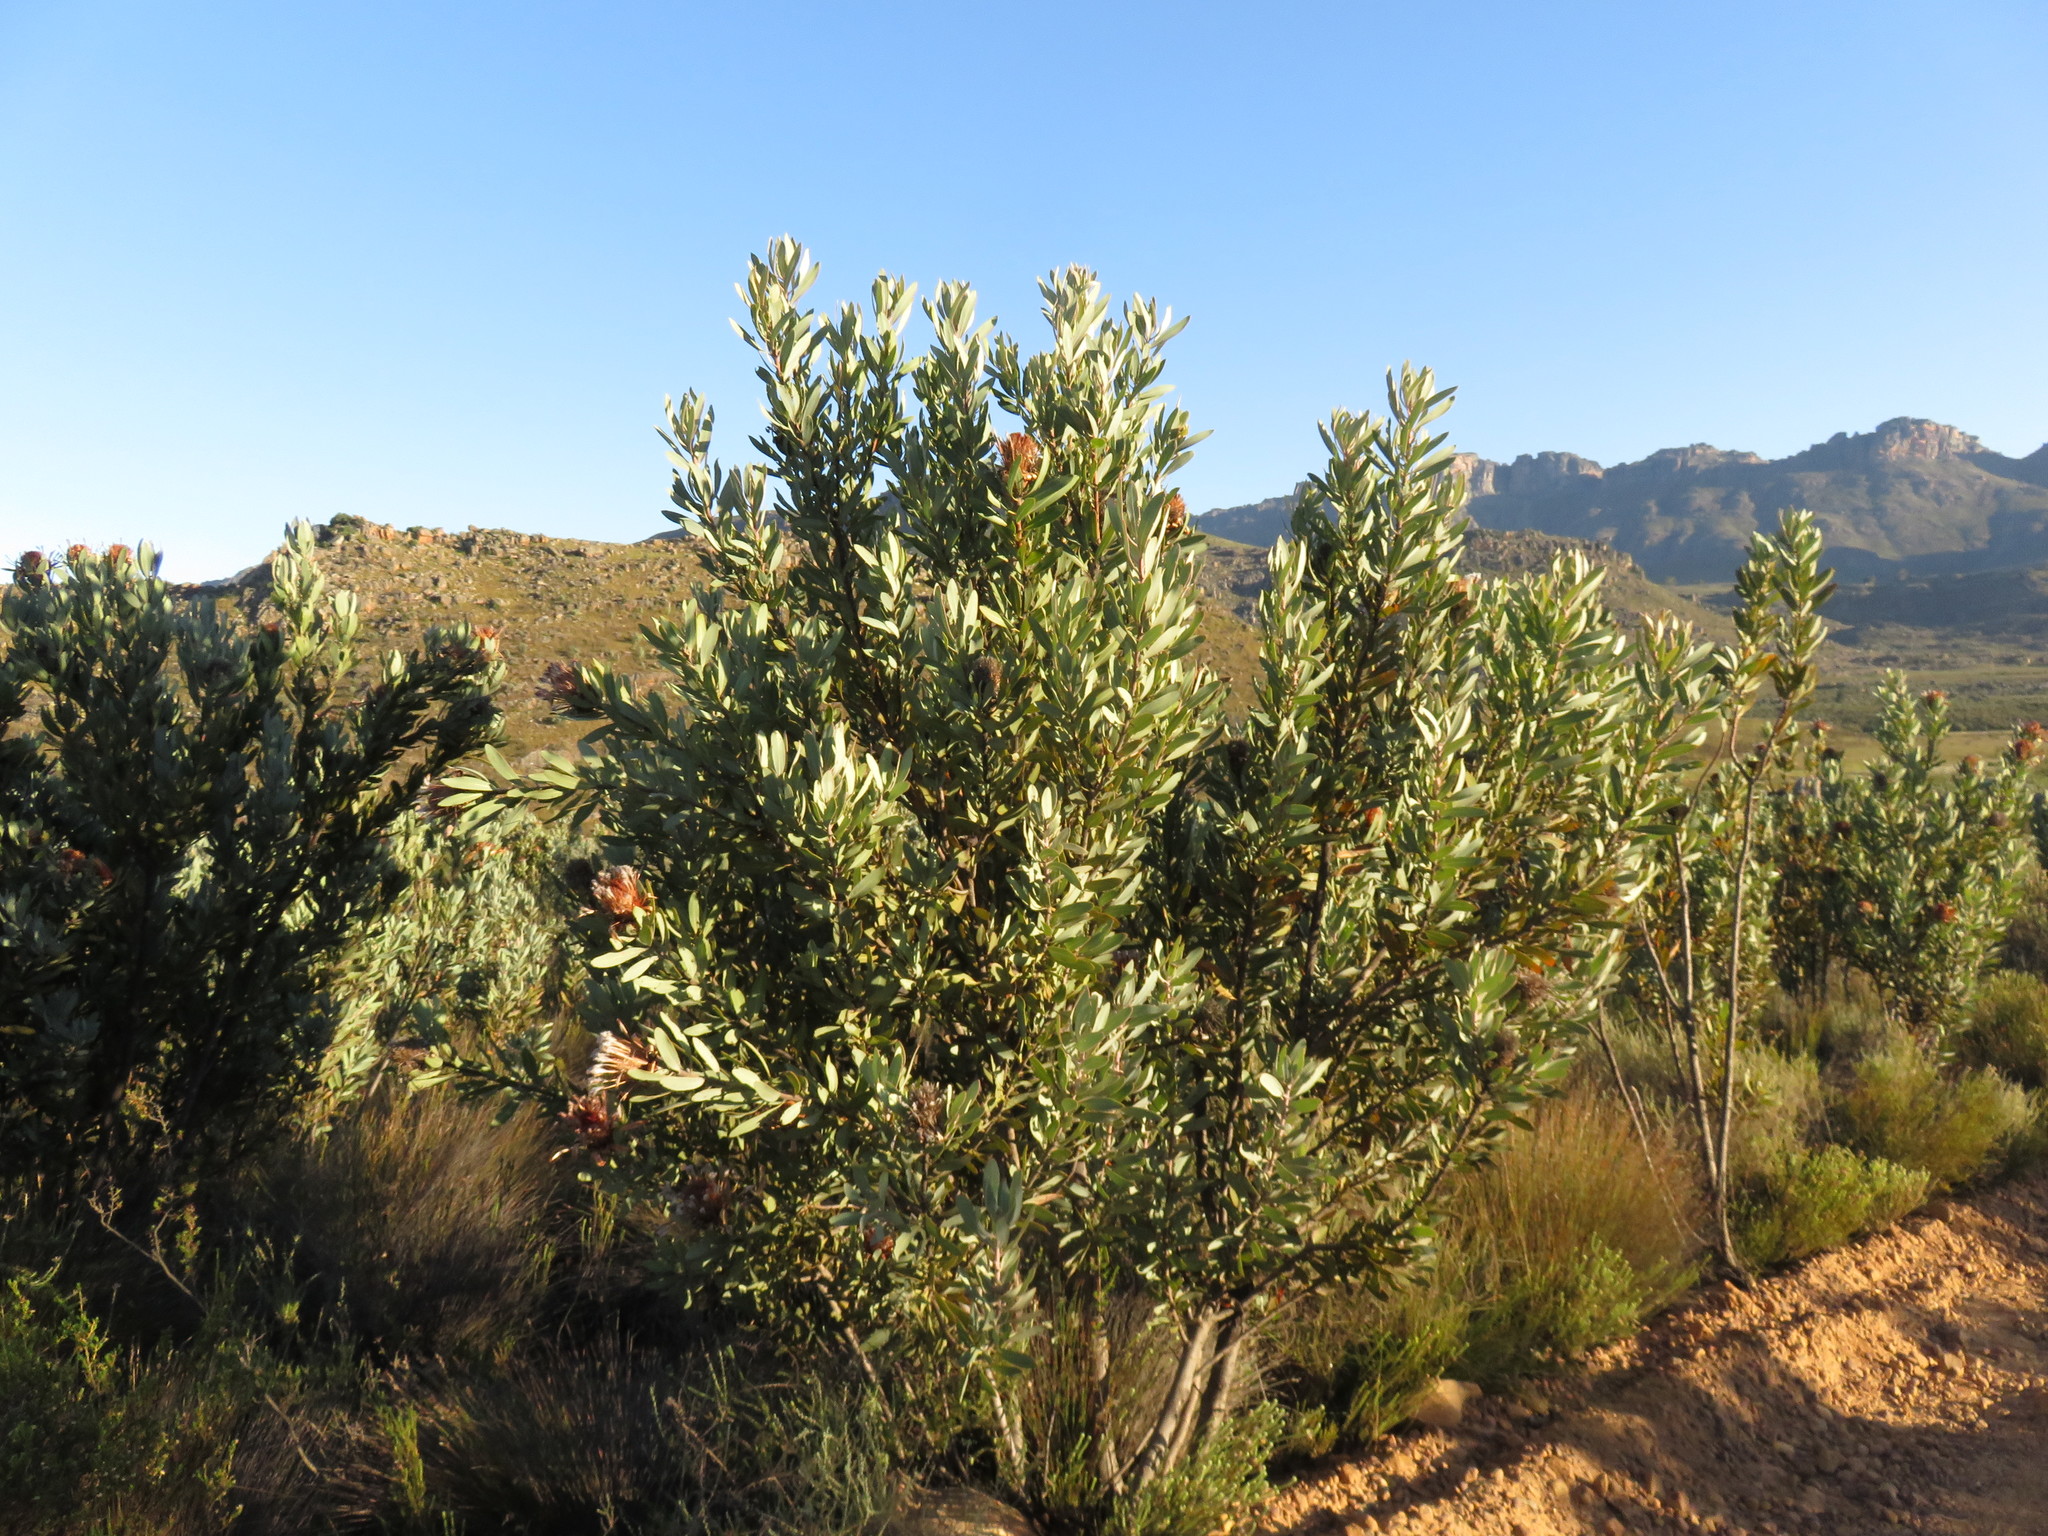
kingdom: Plantae
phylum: Tracheophyta
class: Magnoliopsida
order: Proteales
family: Proteaceae
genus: Protea
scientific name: Protea laurifolia
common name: Grey-leaf sugarbsh
